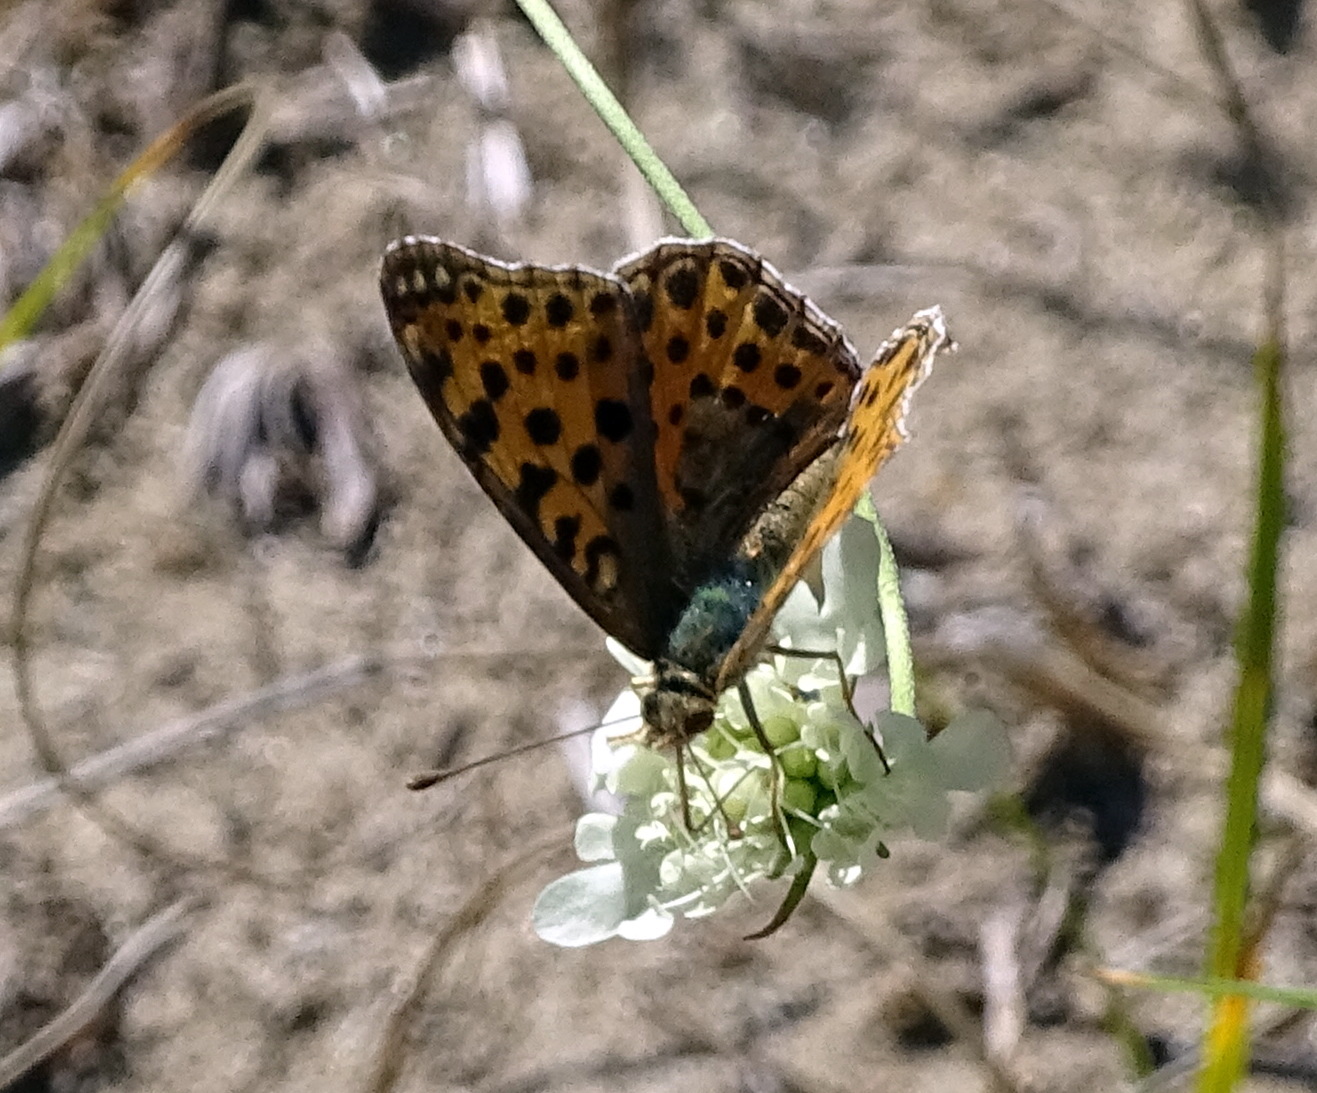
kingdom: Animalia
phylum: Arthropoda
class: Insecta
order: Lepidoptera
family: Nymphalidae
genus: Issoria
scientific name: Issoria lathonia
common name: Queen of spain fritillary
